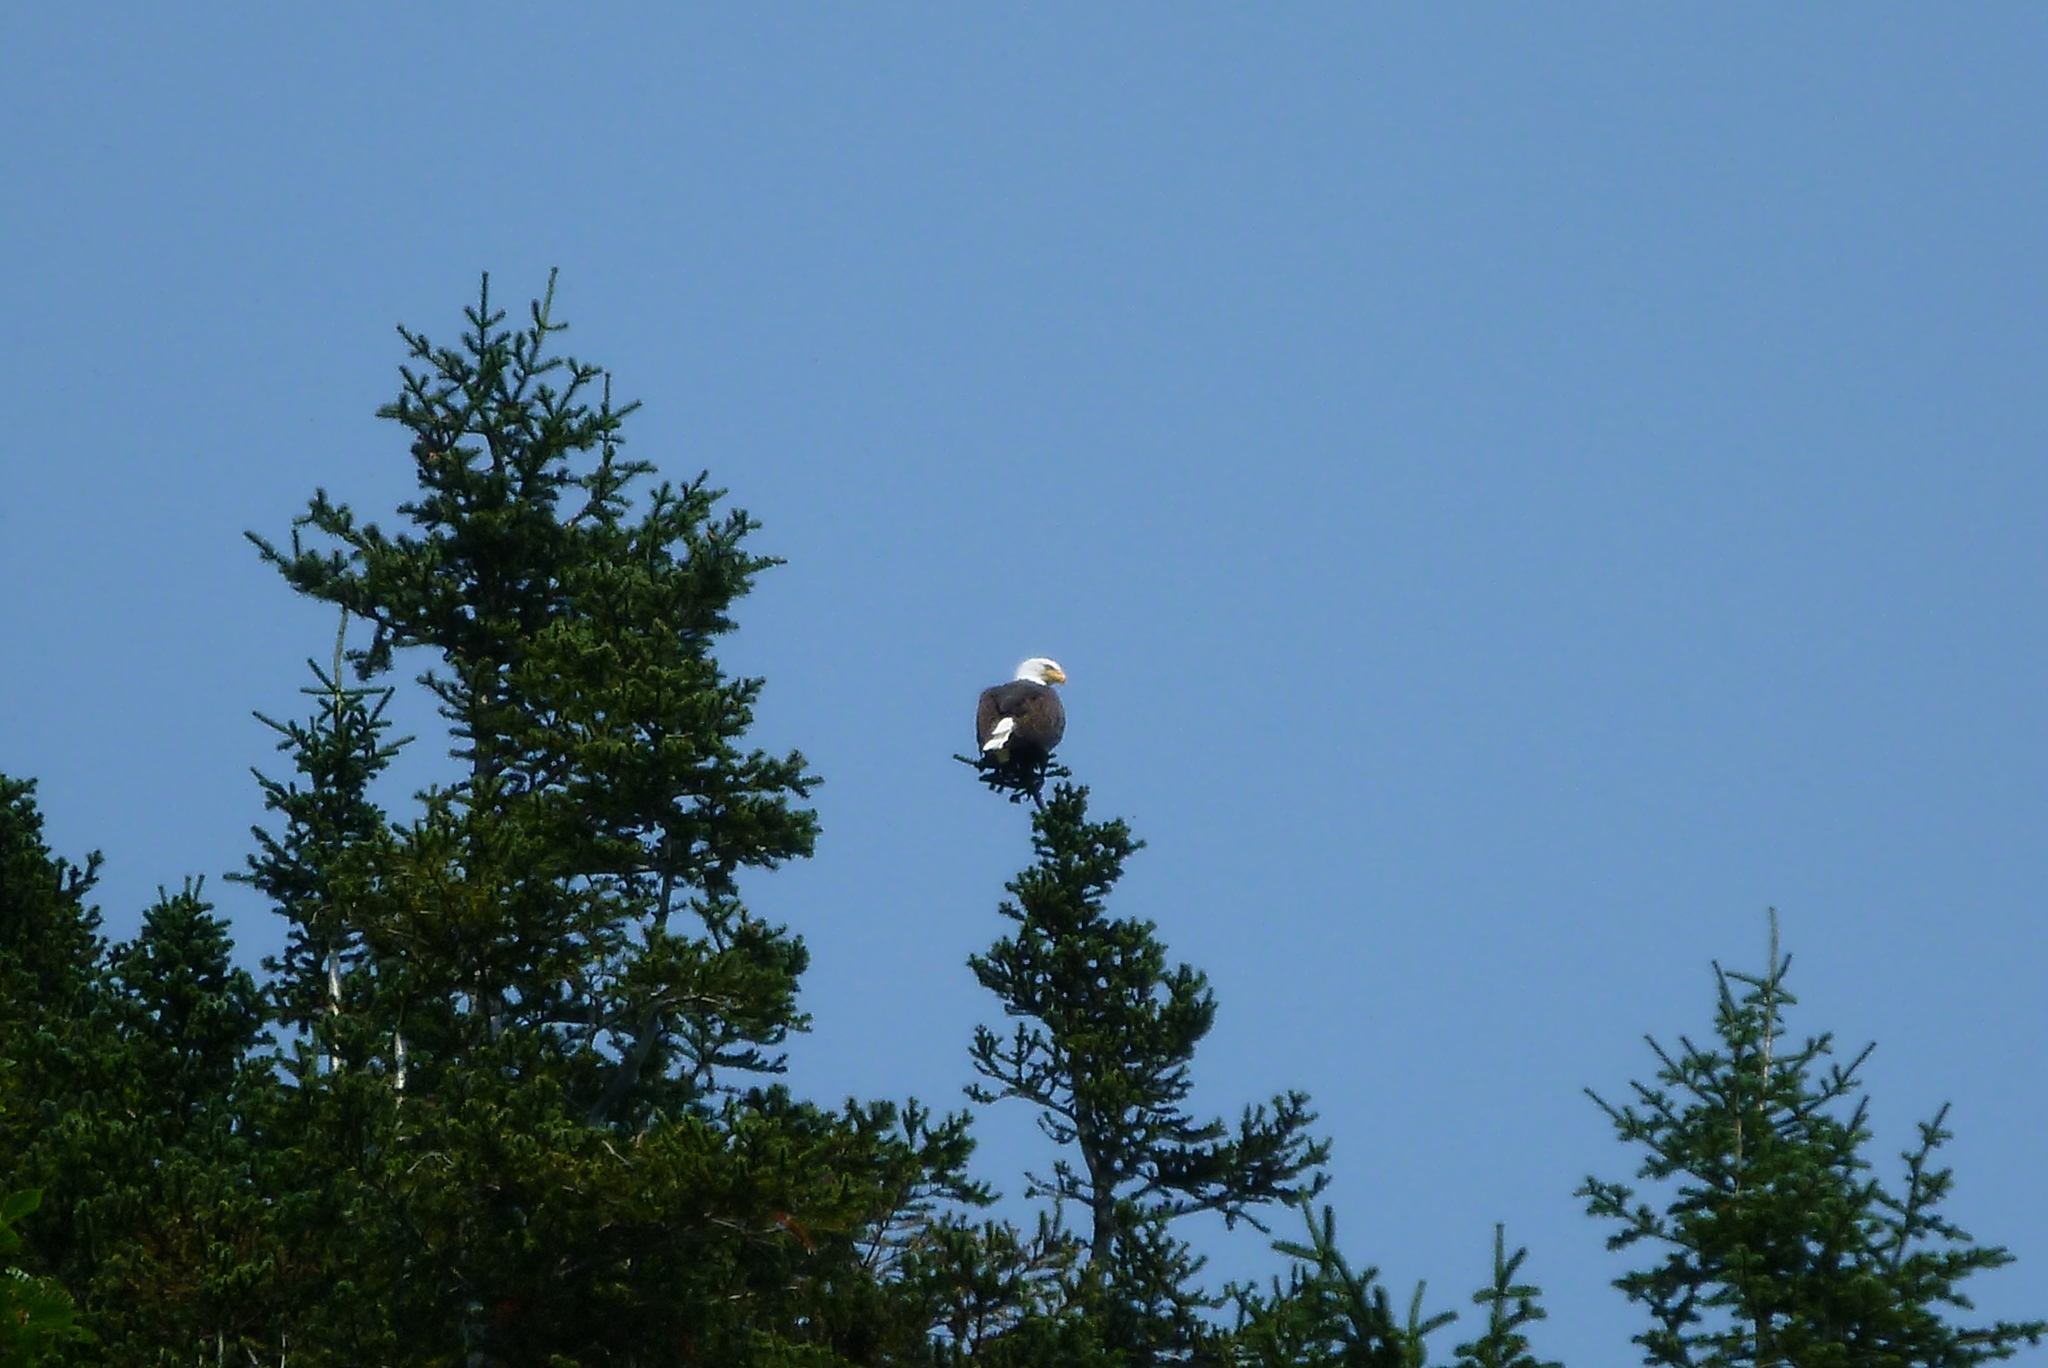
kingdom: Animalia
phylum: Chordata
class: Aves
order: Accipitriformes
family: Accipitridae
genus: Haliaeetus
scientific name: Haliaeetus leucocephalus
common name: Bald eagle
